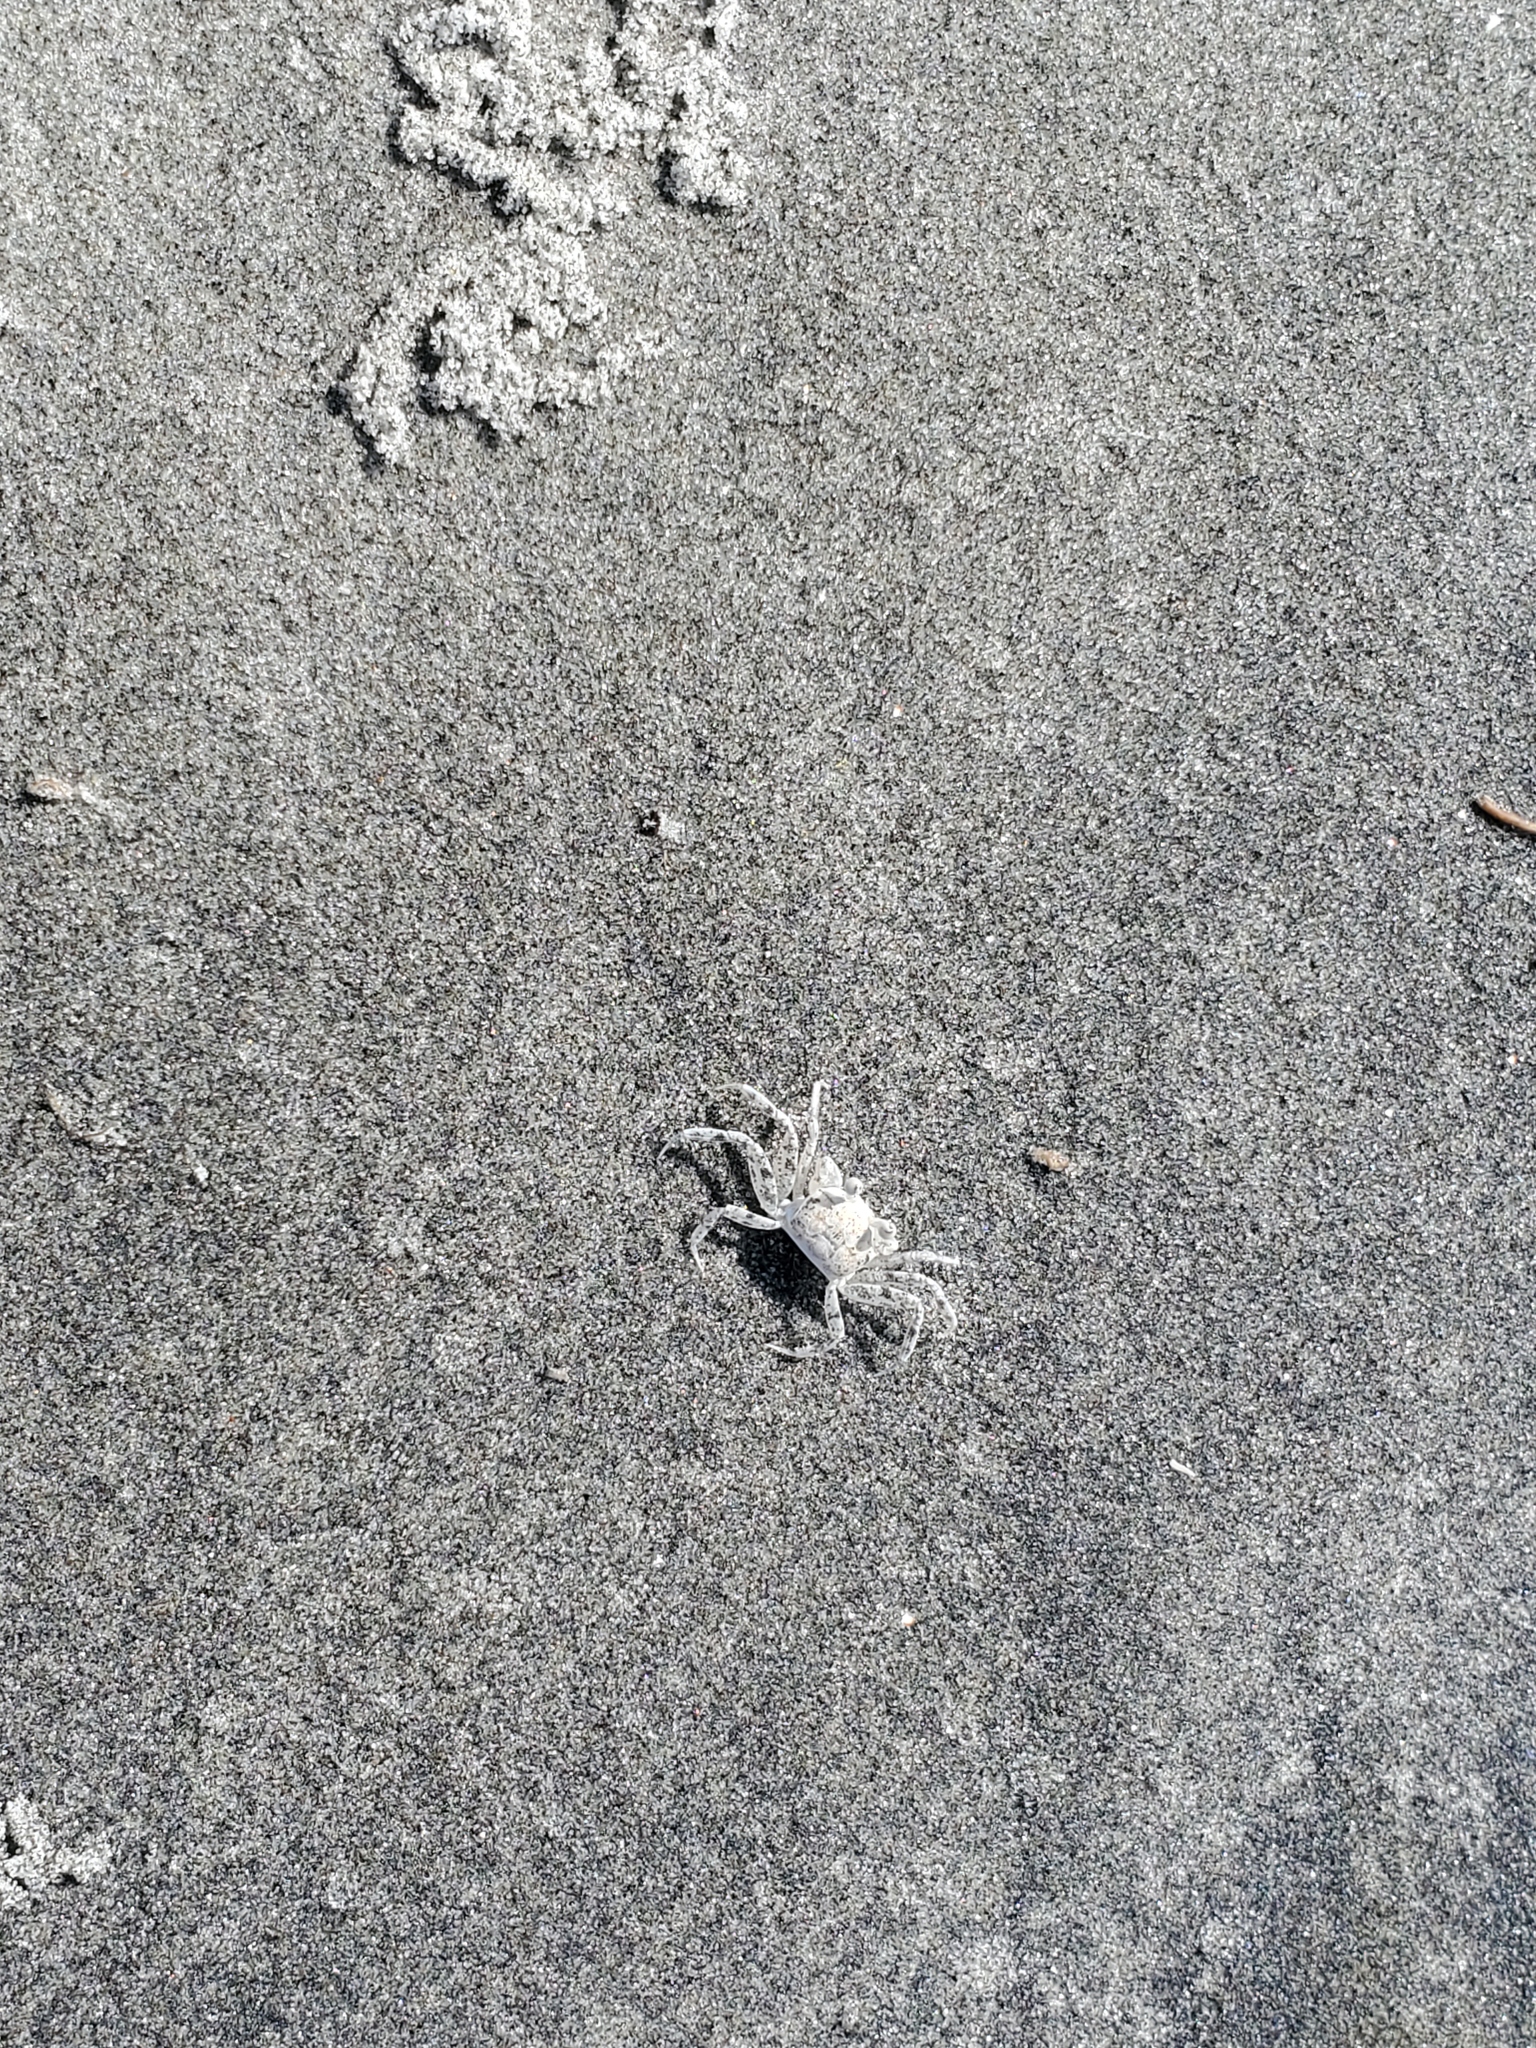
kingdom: Animalia
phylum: Arthropoda
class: Malacostraca
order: Decapoda
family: Ocypodidae
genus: Ocypode
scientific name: Ocypode quadrata
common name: Ghost crab
